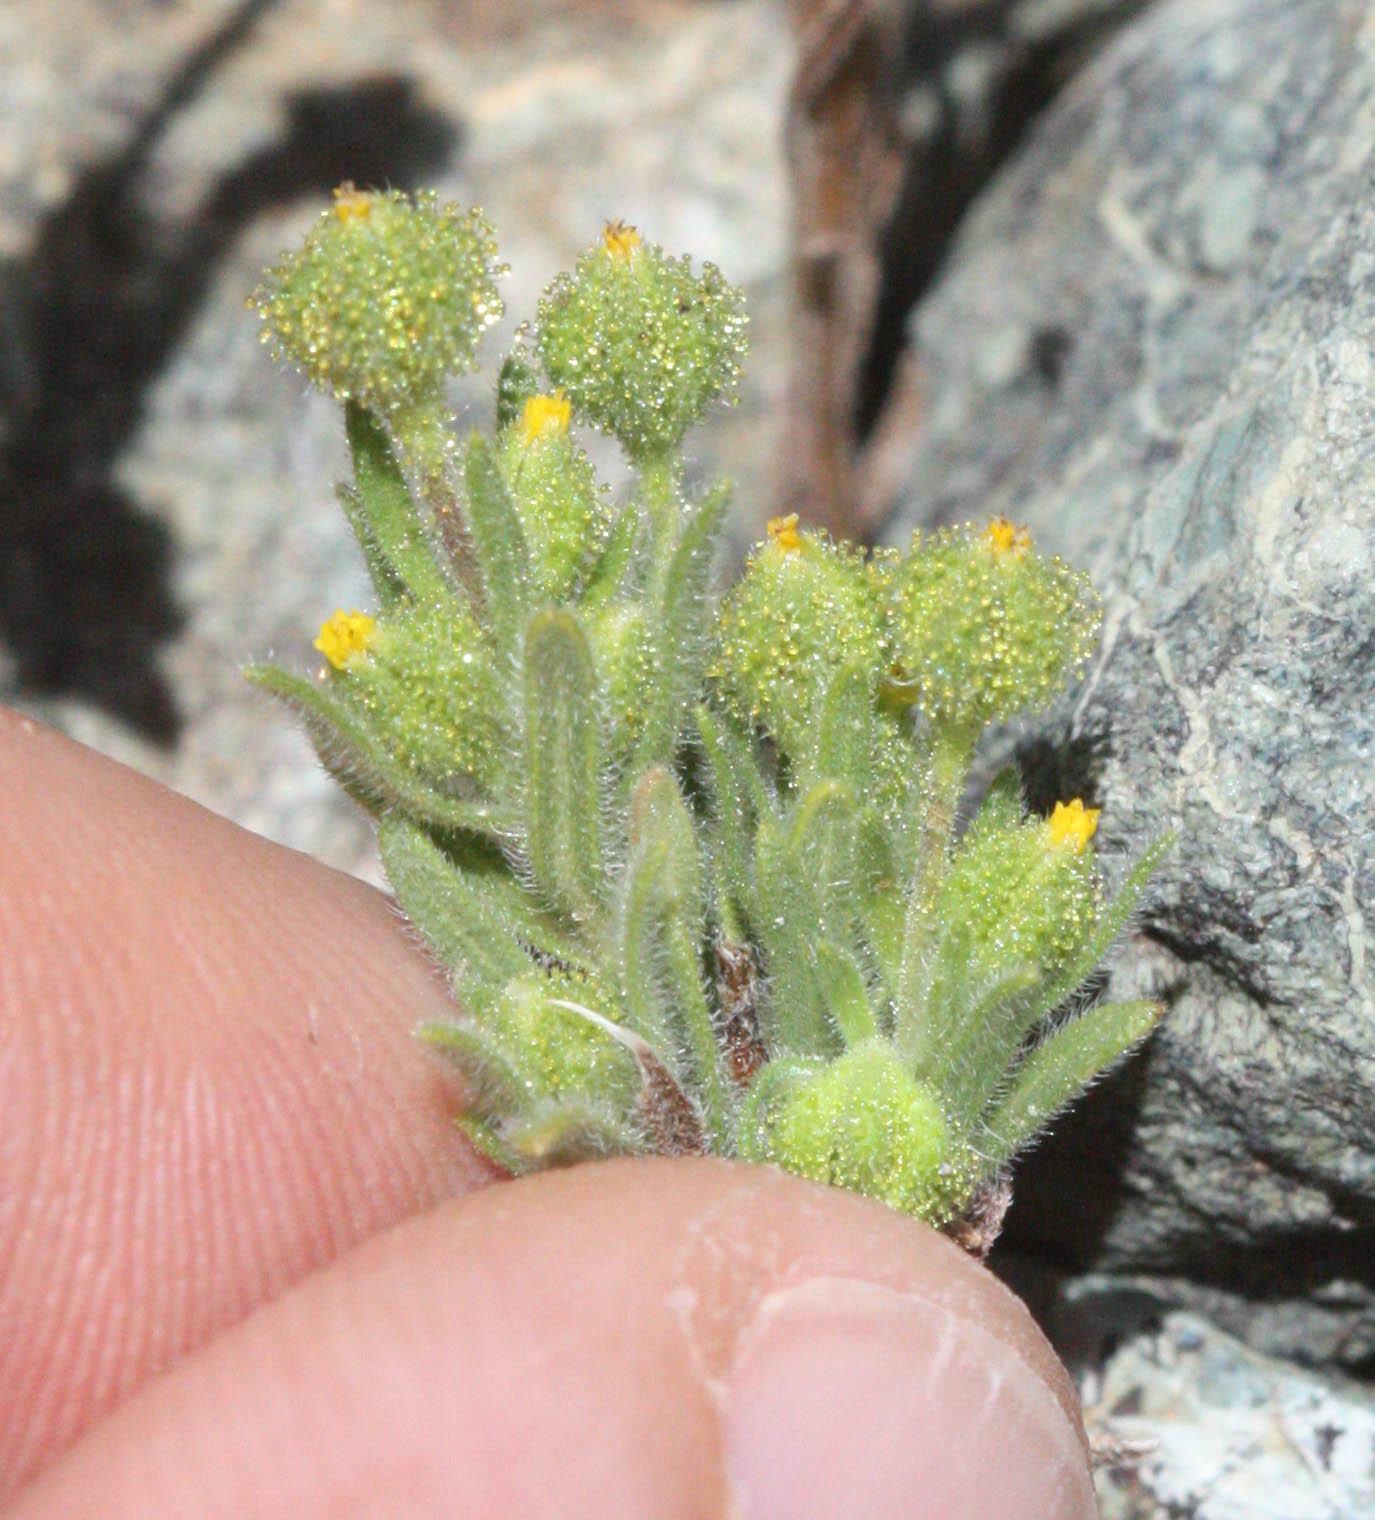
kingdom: Plantae
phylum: Tracheophyta
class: Magnoliopsida
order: Asterales
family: Asteraceae
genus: Madia
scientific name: Madia exigua
